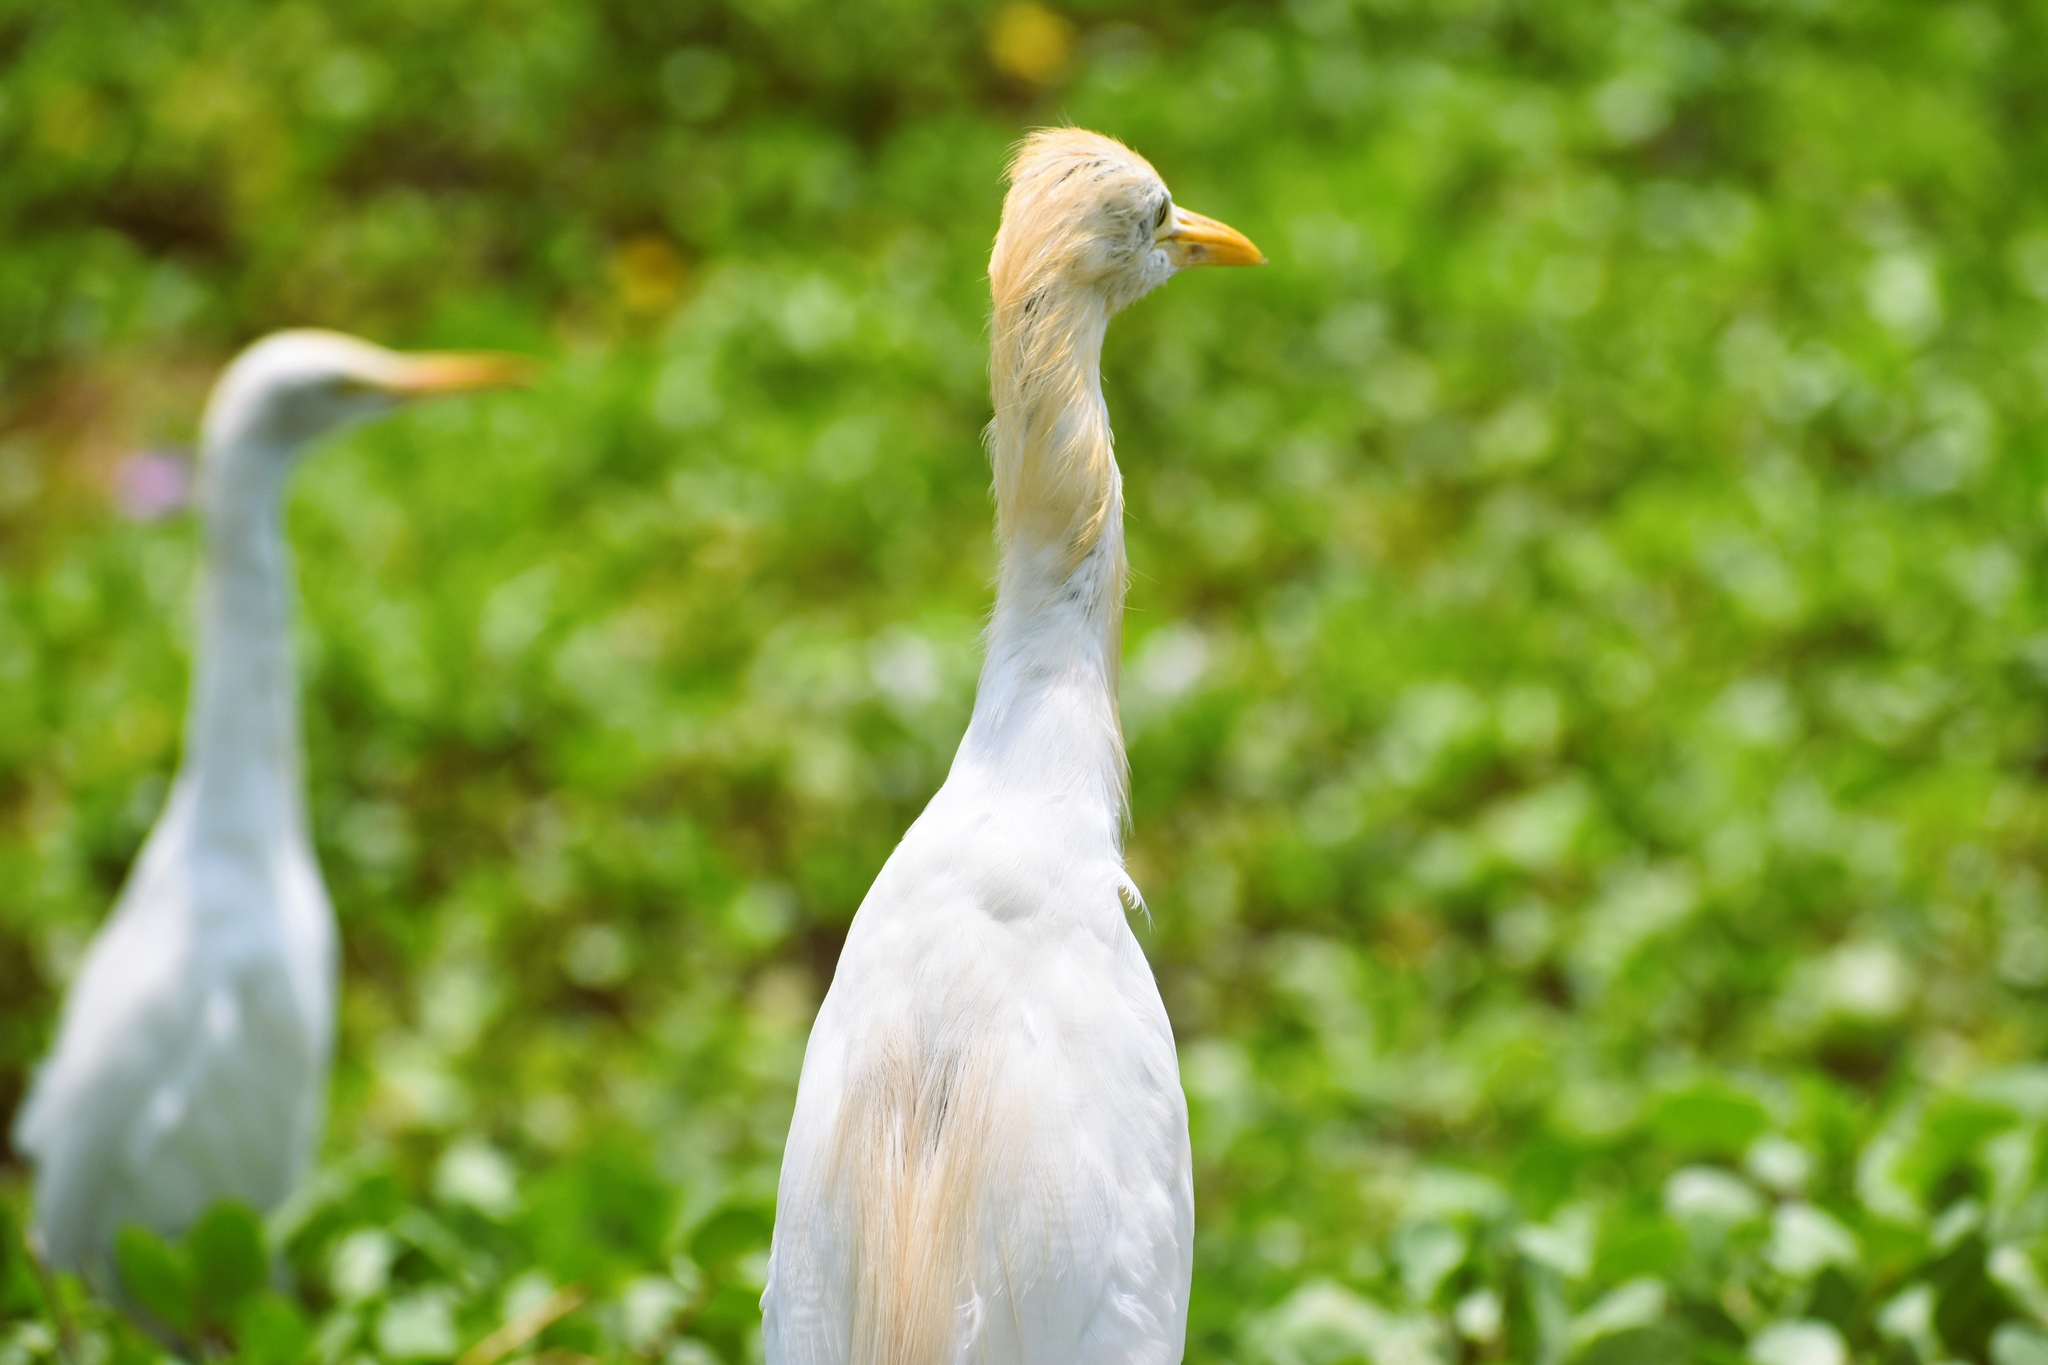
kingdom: Animalia
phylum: Chordata
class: Aves
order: Pelecaniformes
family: Ardeidae
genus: Bubulcus
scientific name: Bubulcus coromandus
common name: Eastern cattle egret
